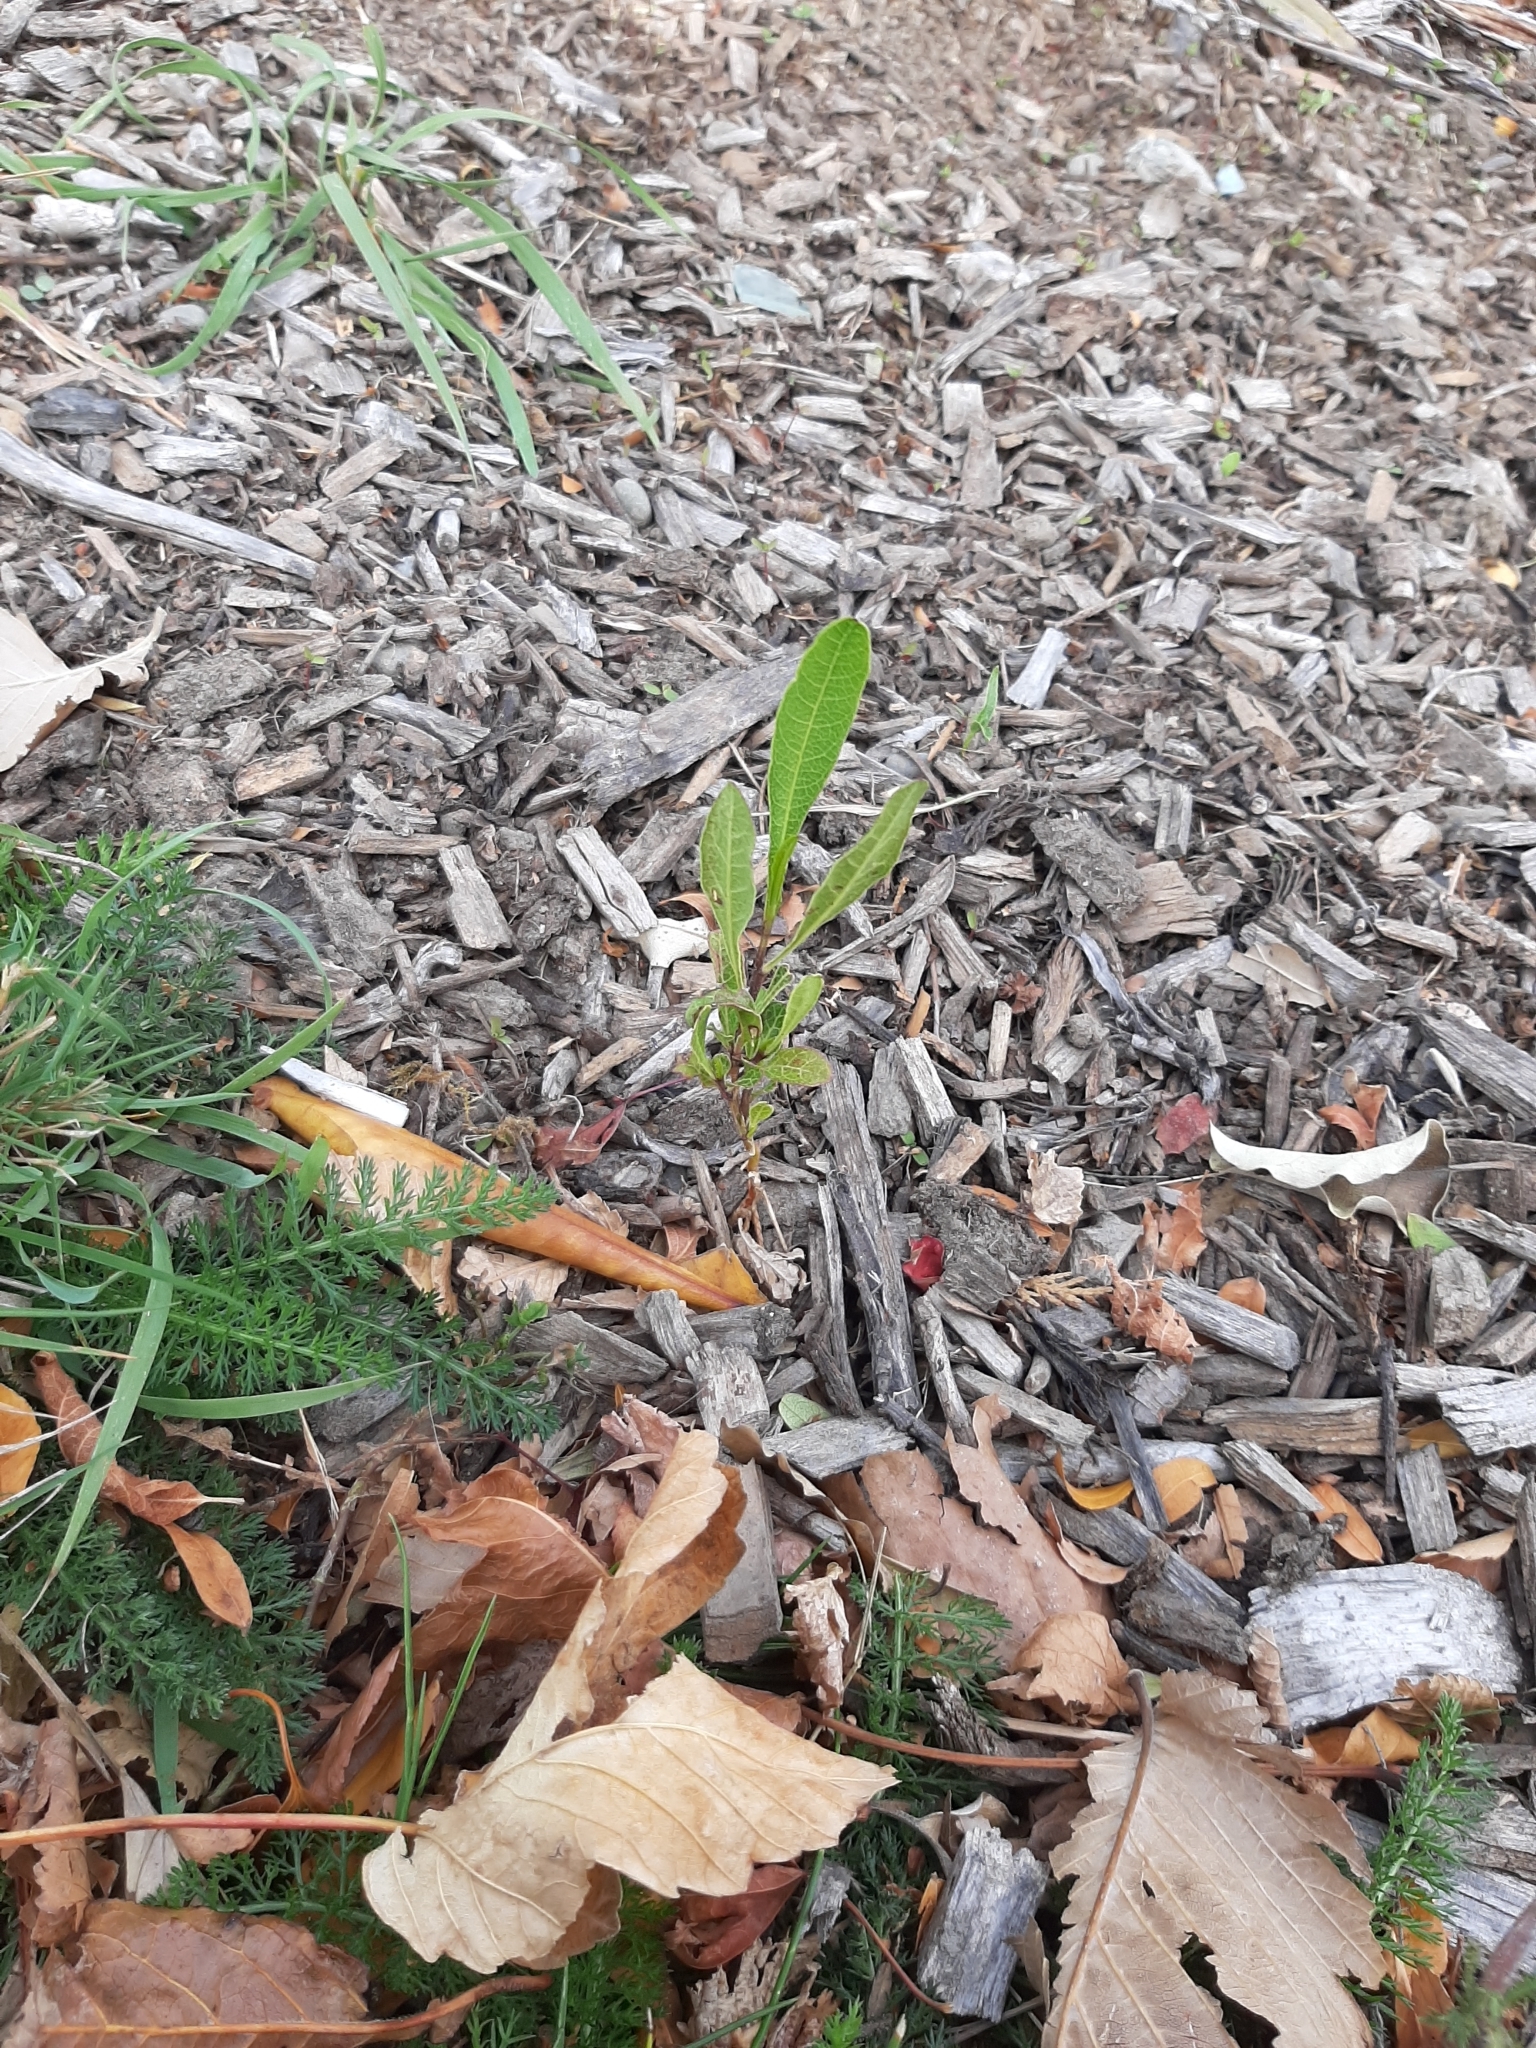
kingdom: Plantae
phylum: Tracheophyta
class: Magnoliopsida
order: Sapindales
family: Sapindaceae
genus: Dodonaea
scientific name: Dodonaea viscosa
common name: Hopbush
